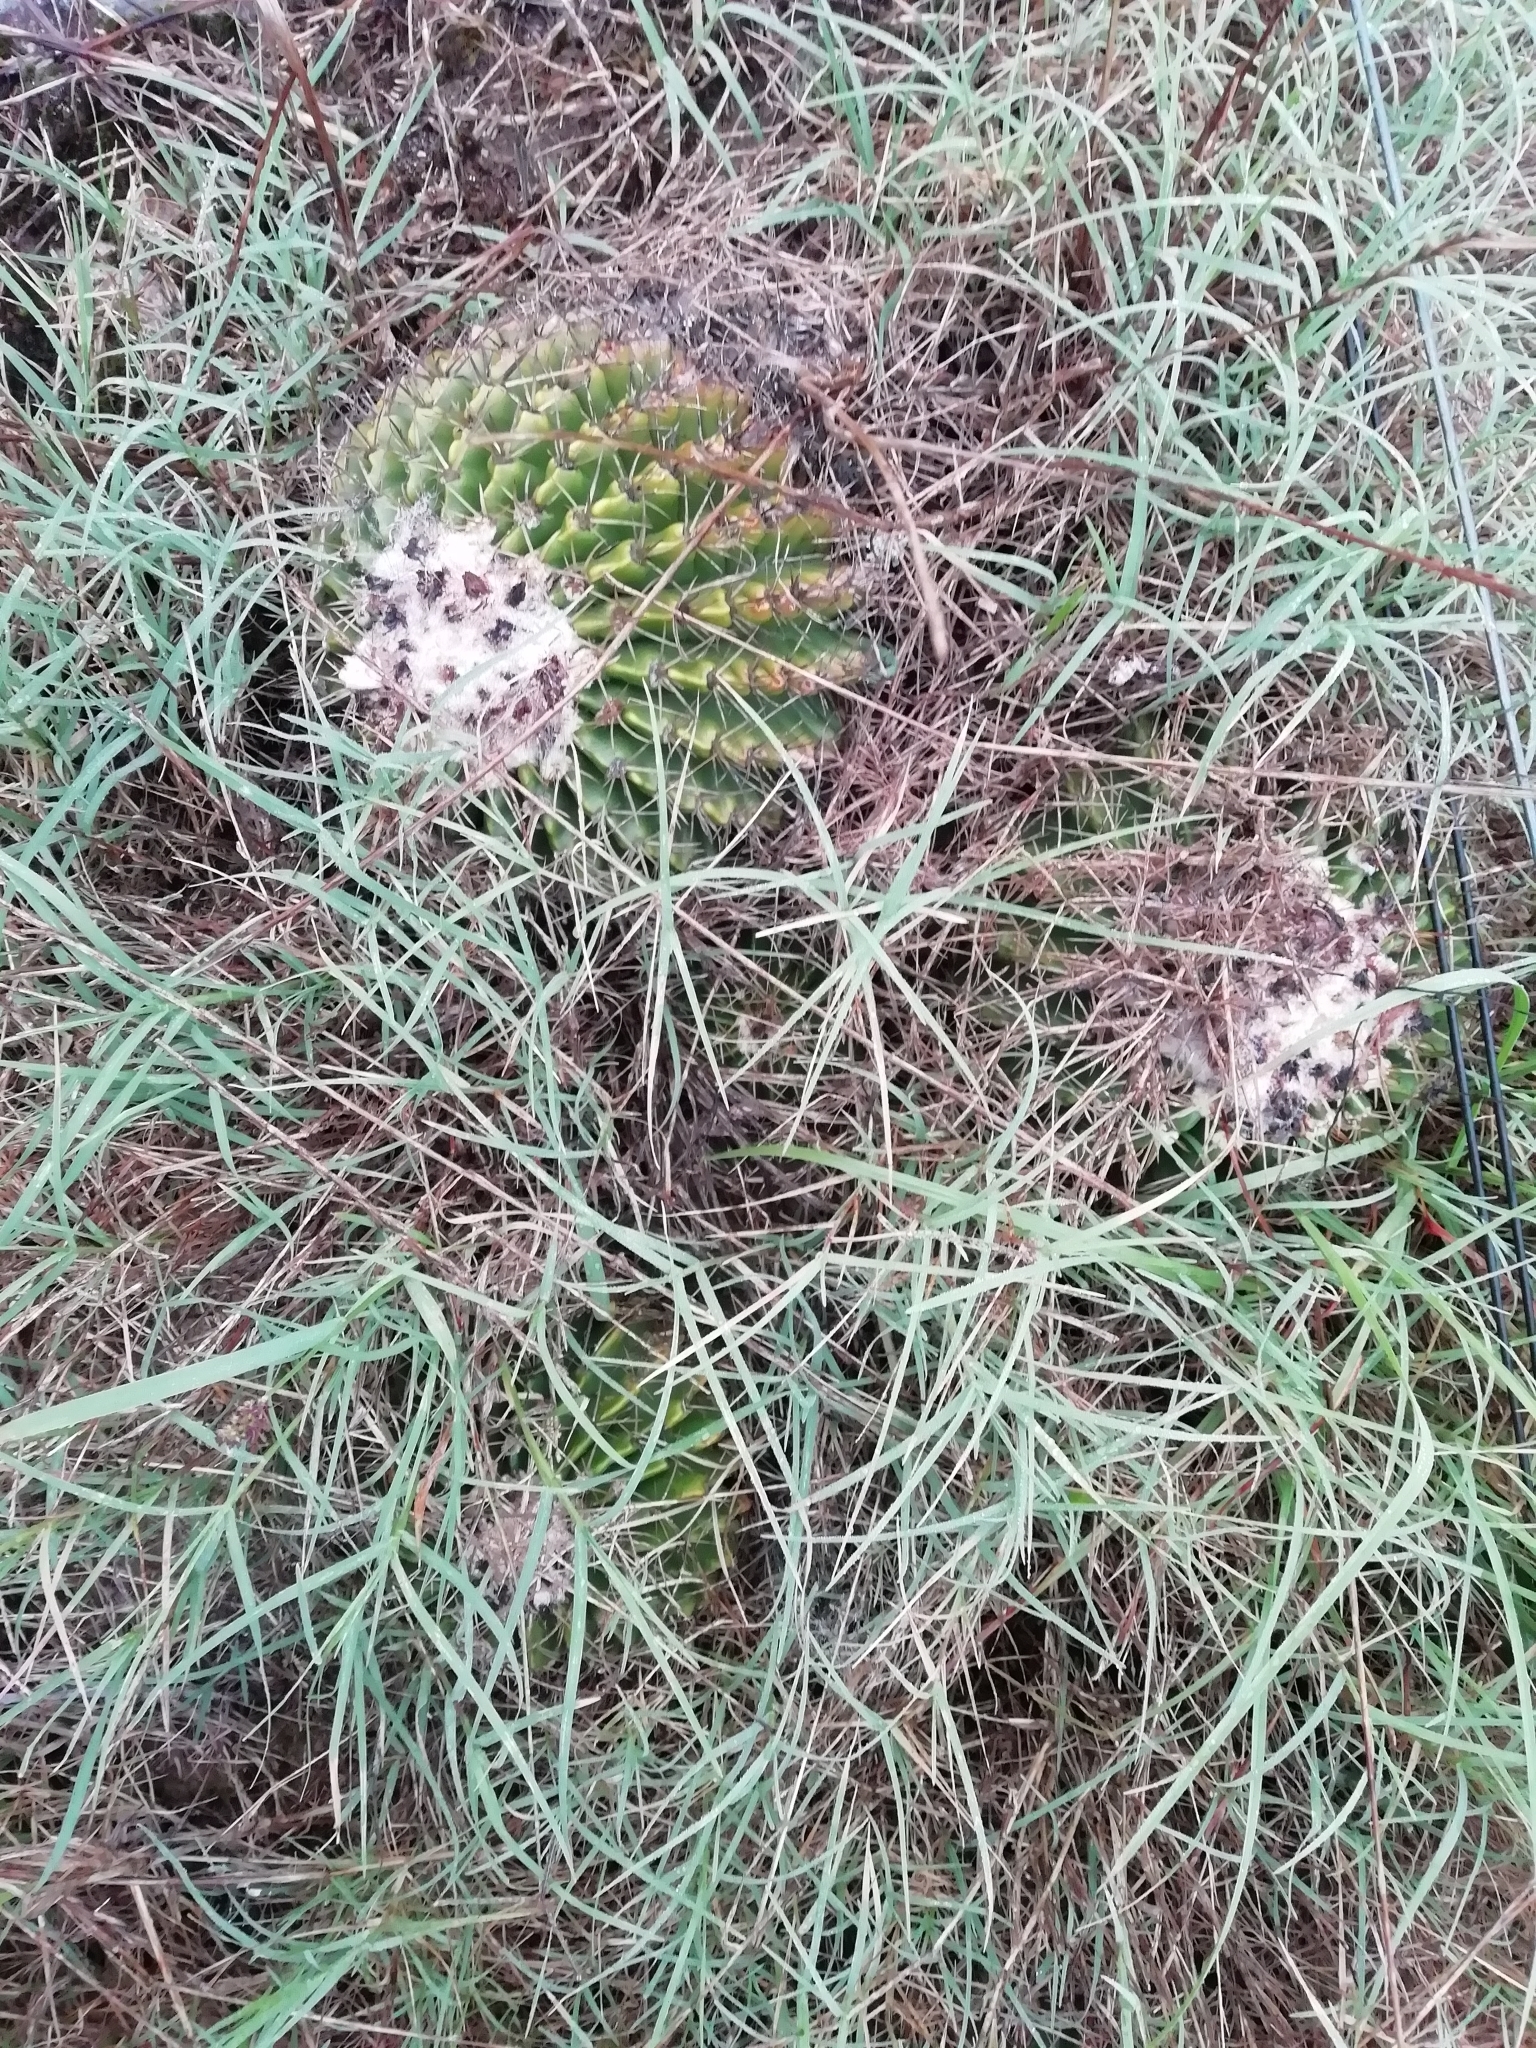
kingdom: Plantae
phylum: Tracheophyta
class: Magnoliopsida
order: Caryophyllales
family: Cactaceae
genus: Parodia
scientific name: Parodia erinacea
